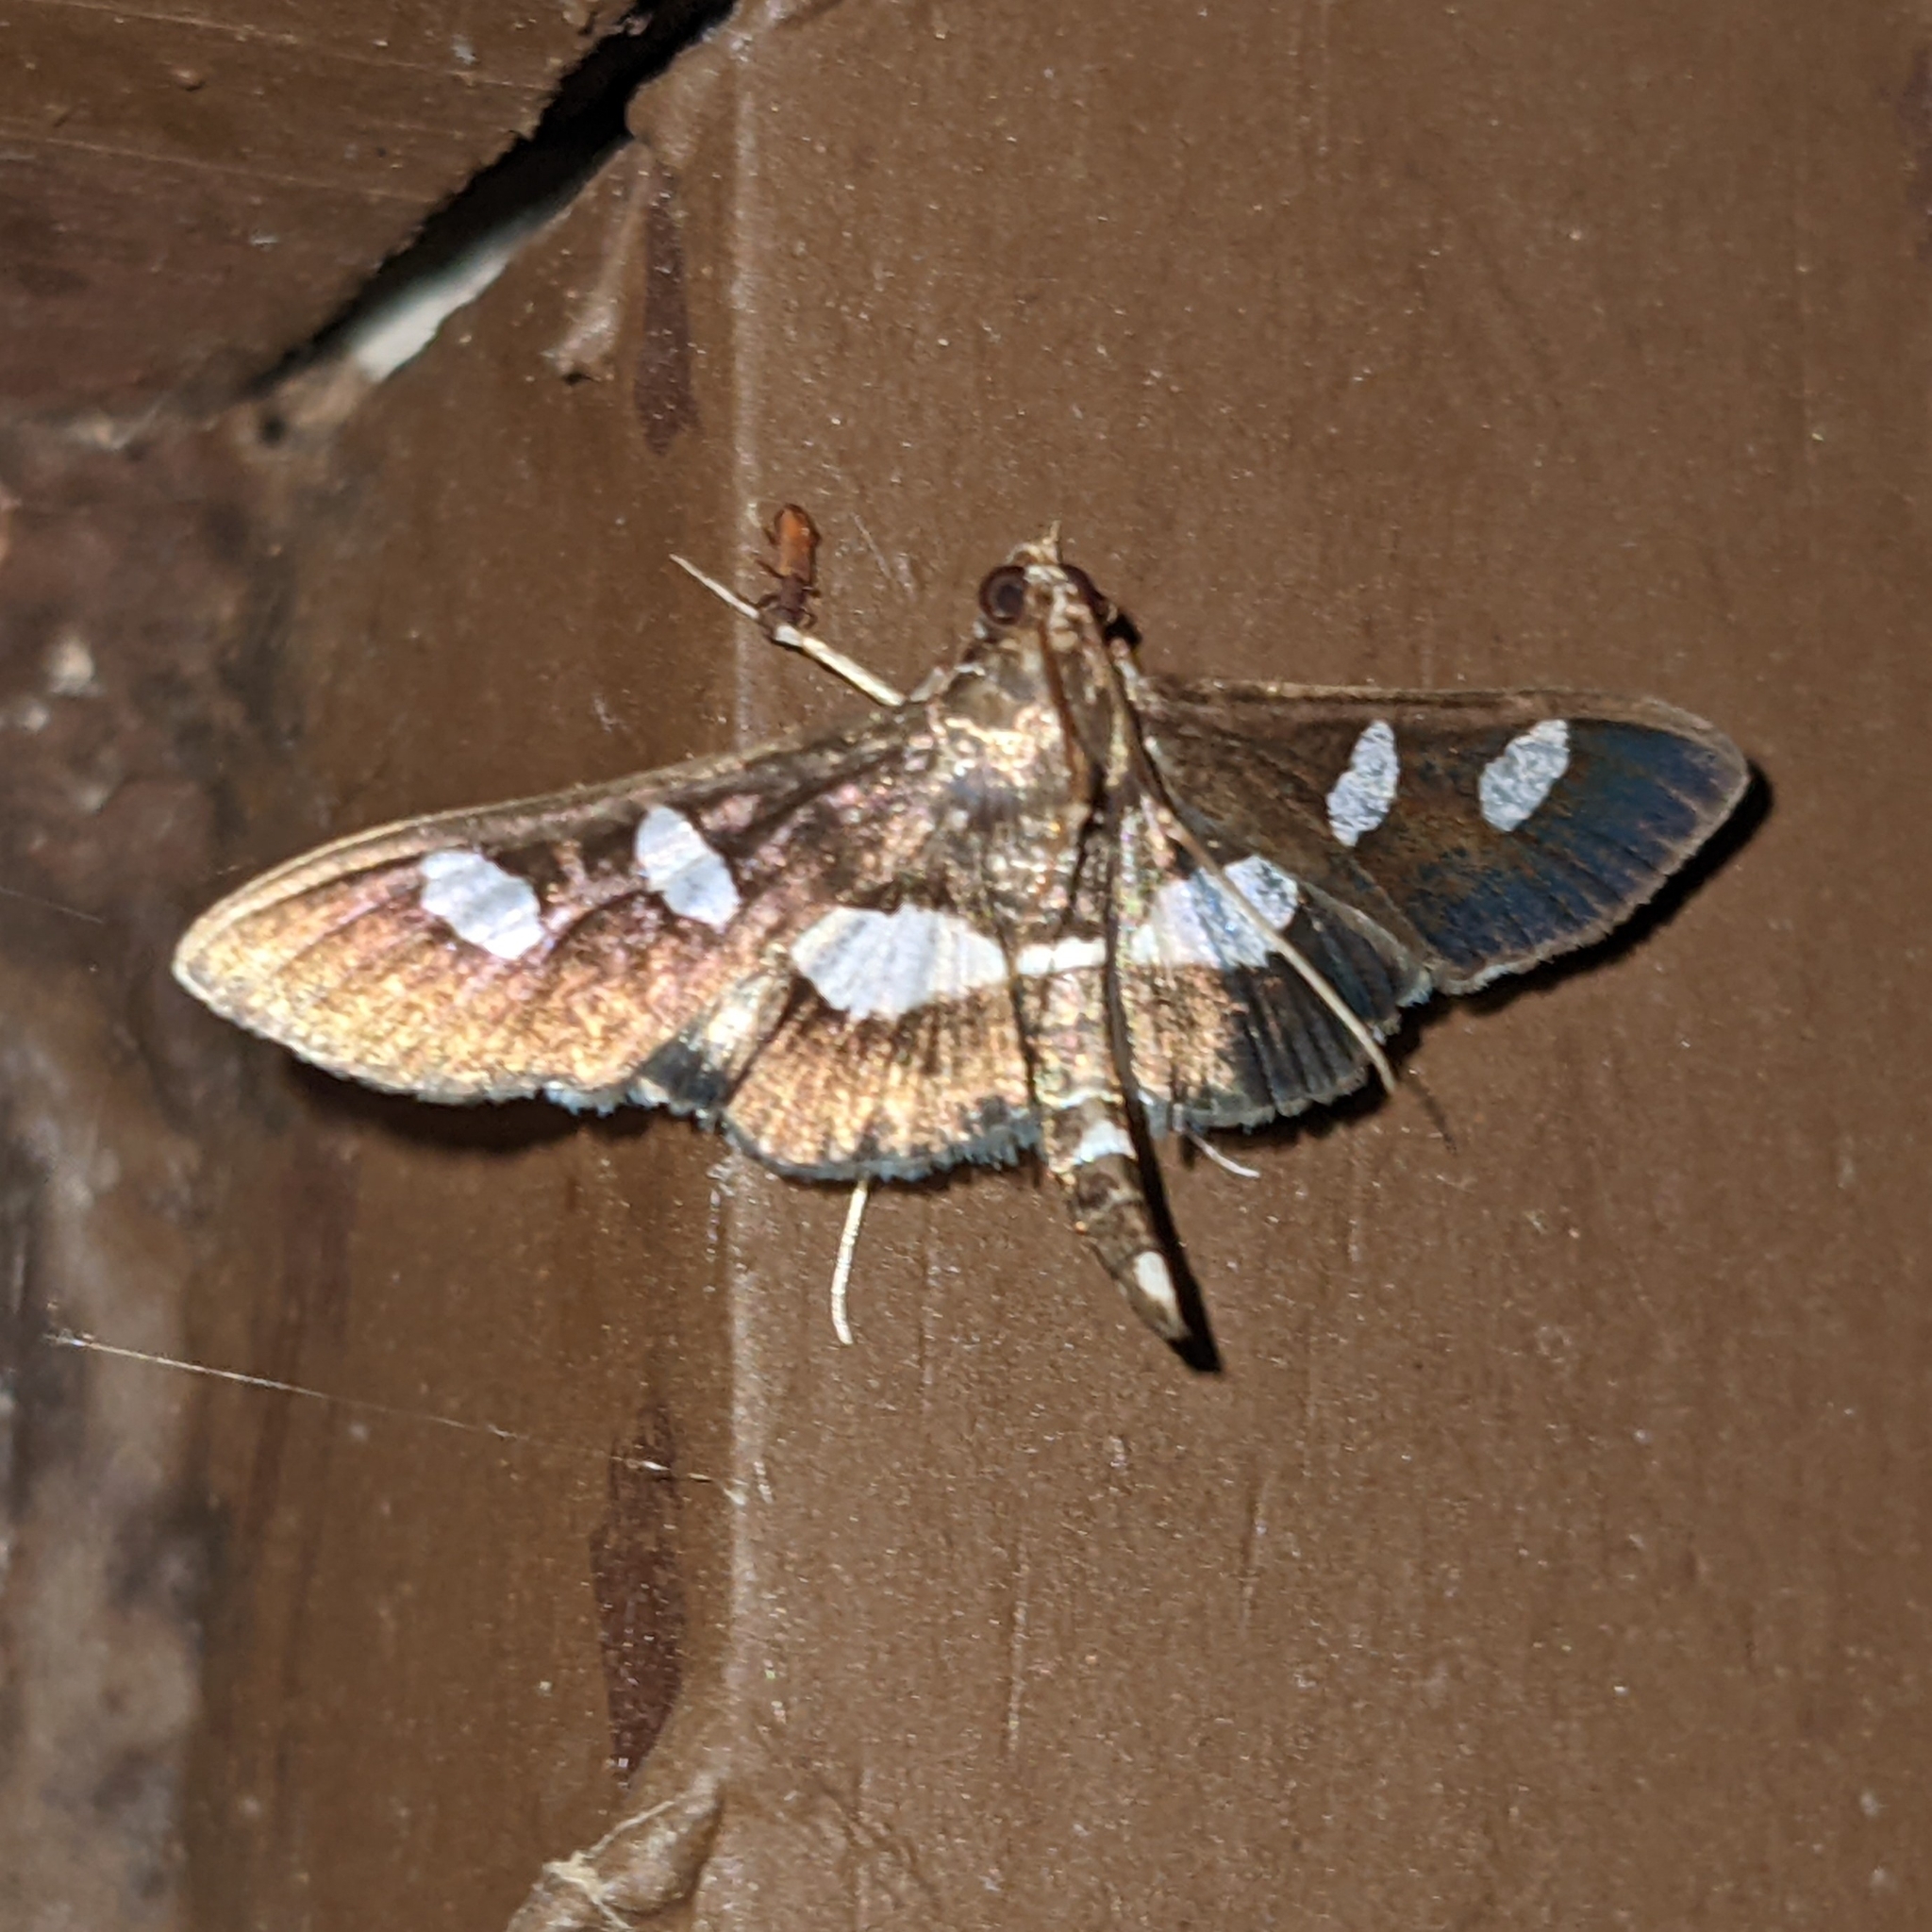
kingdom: Animalia
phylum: Arthropoda
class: Insecta
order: Lepidoptera
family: Crambidae
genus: Desmia
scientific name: Desmia funeralis
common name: Grape leaf folder moth
